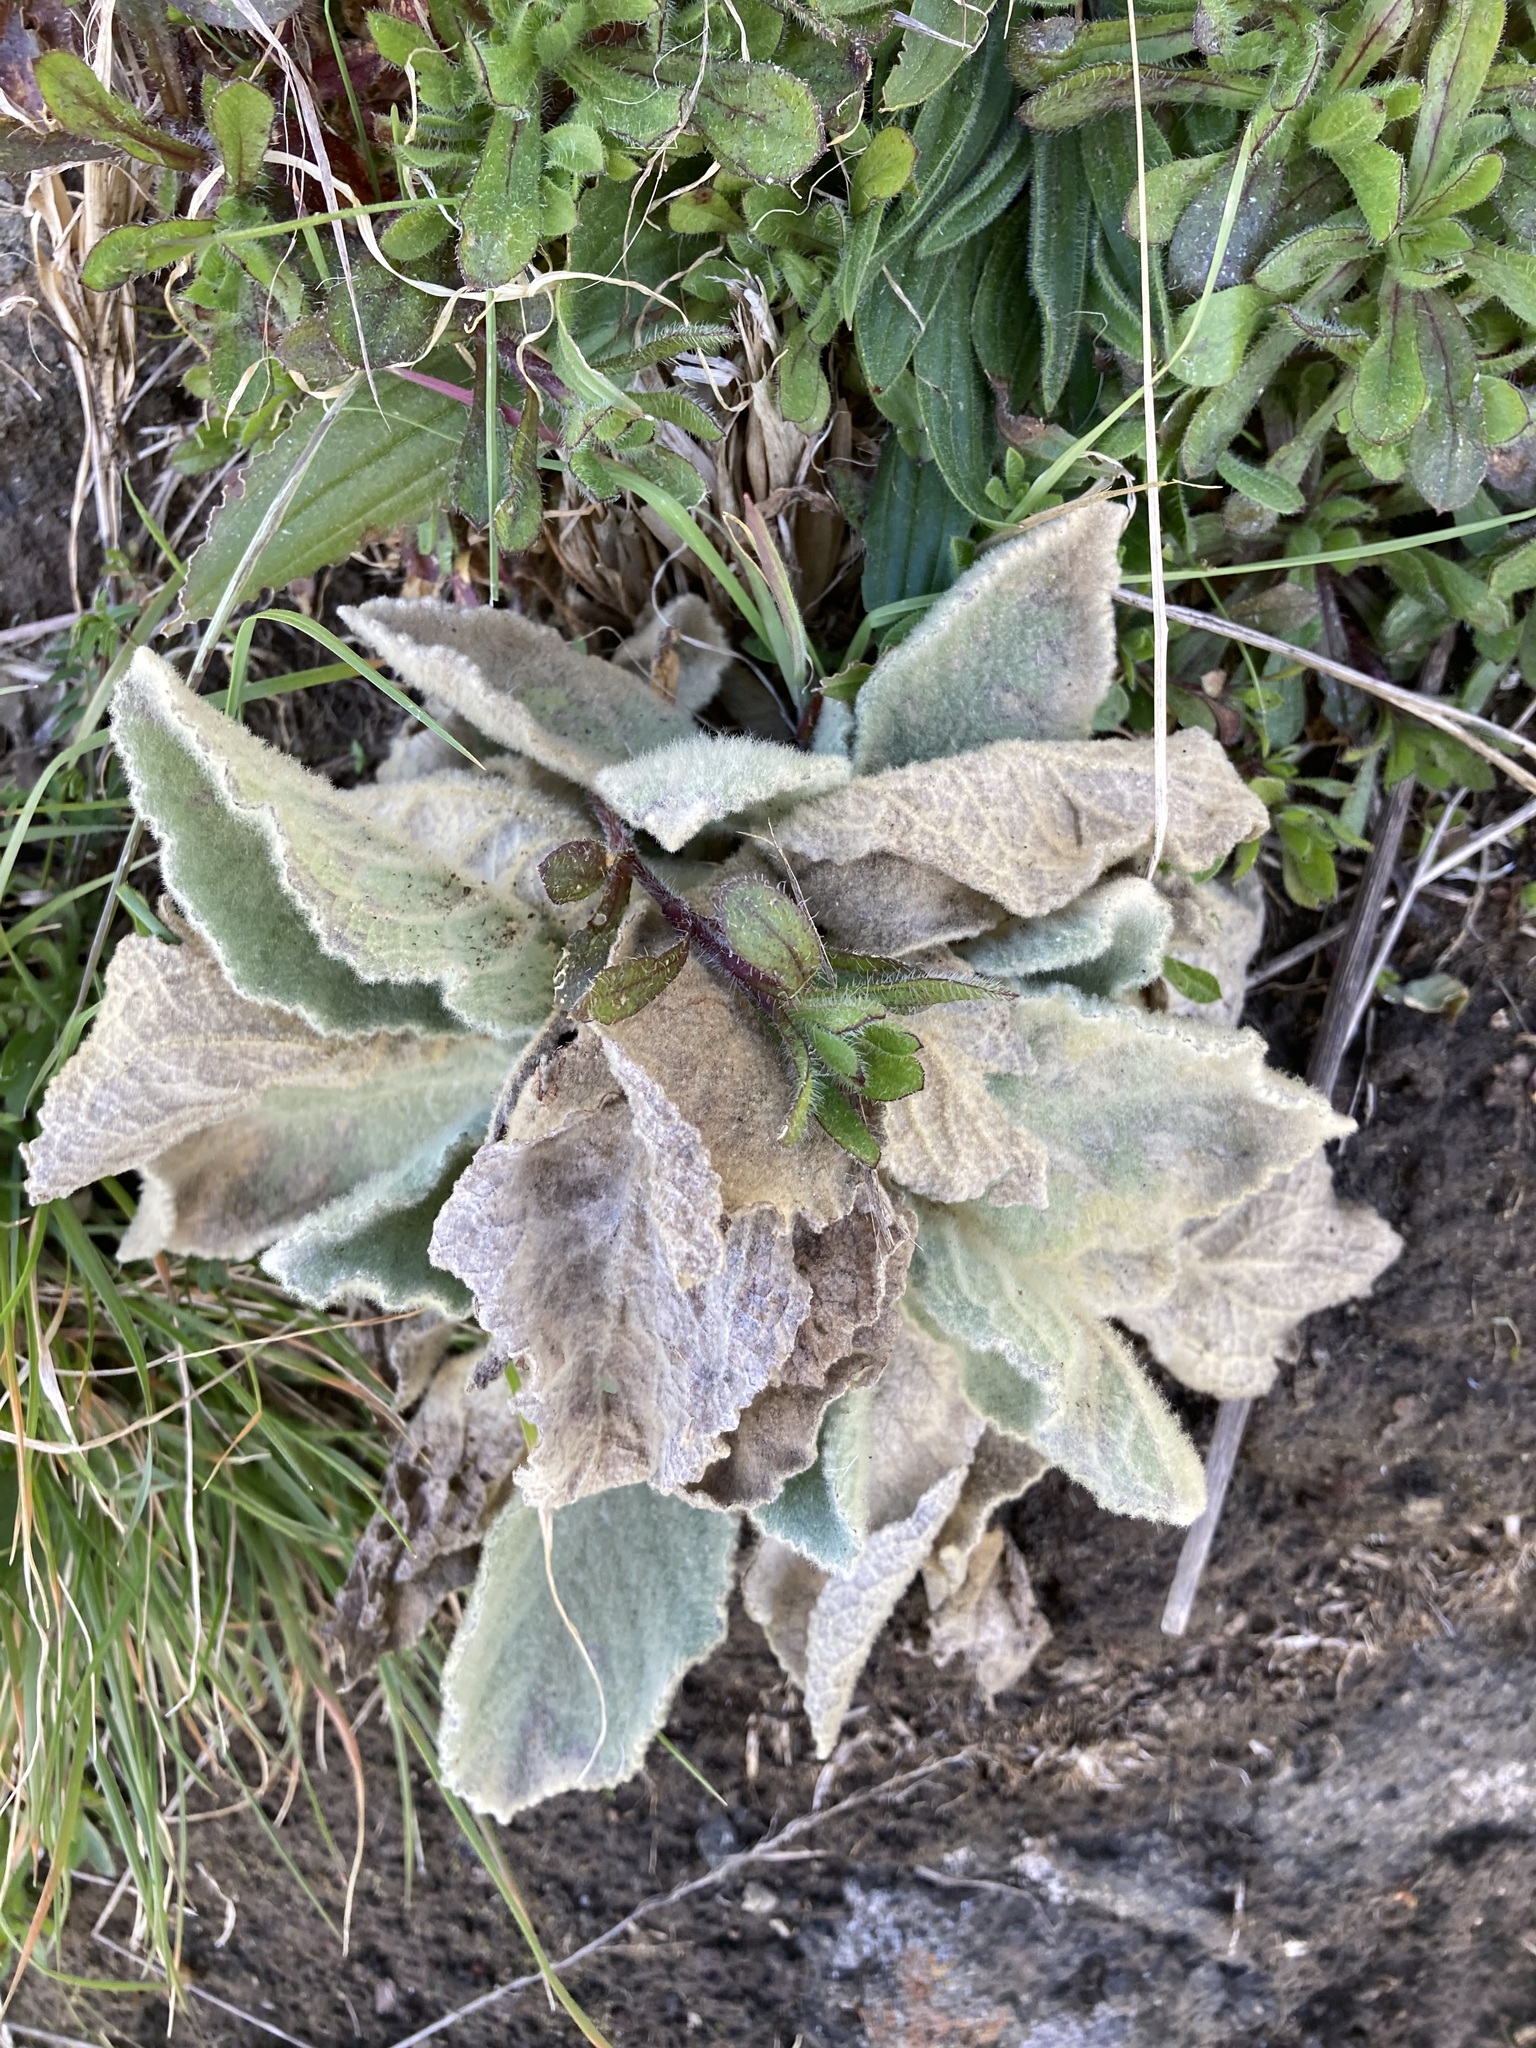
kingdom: Plantae
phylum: Tracheophyta
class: Magnoliopsida
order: Lamiales
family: Scrophulariaceae
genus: Verbascum
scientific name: Verbascum thapsus
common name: Common mullein
